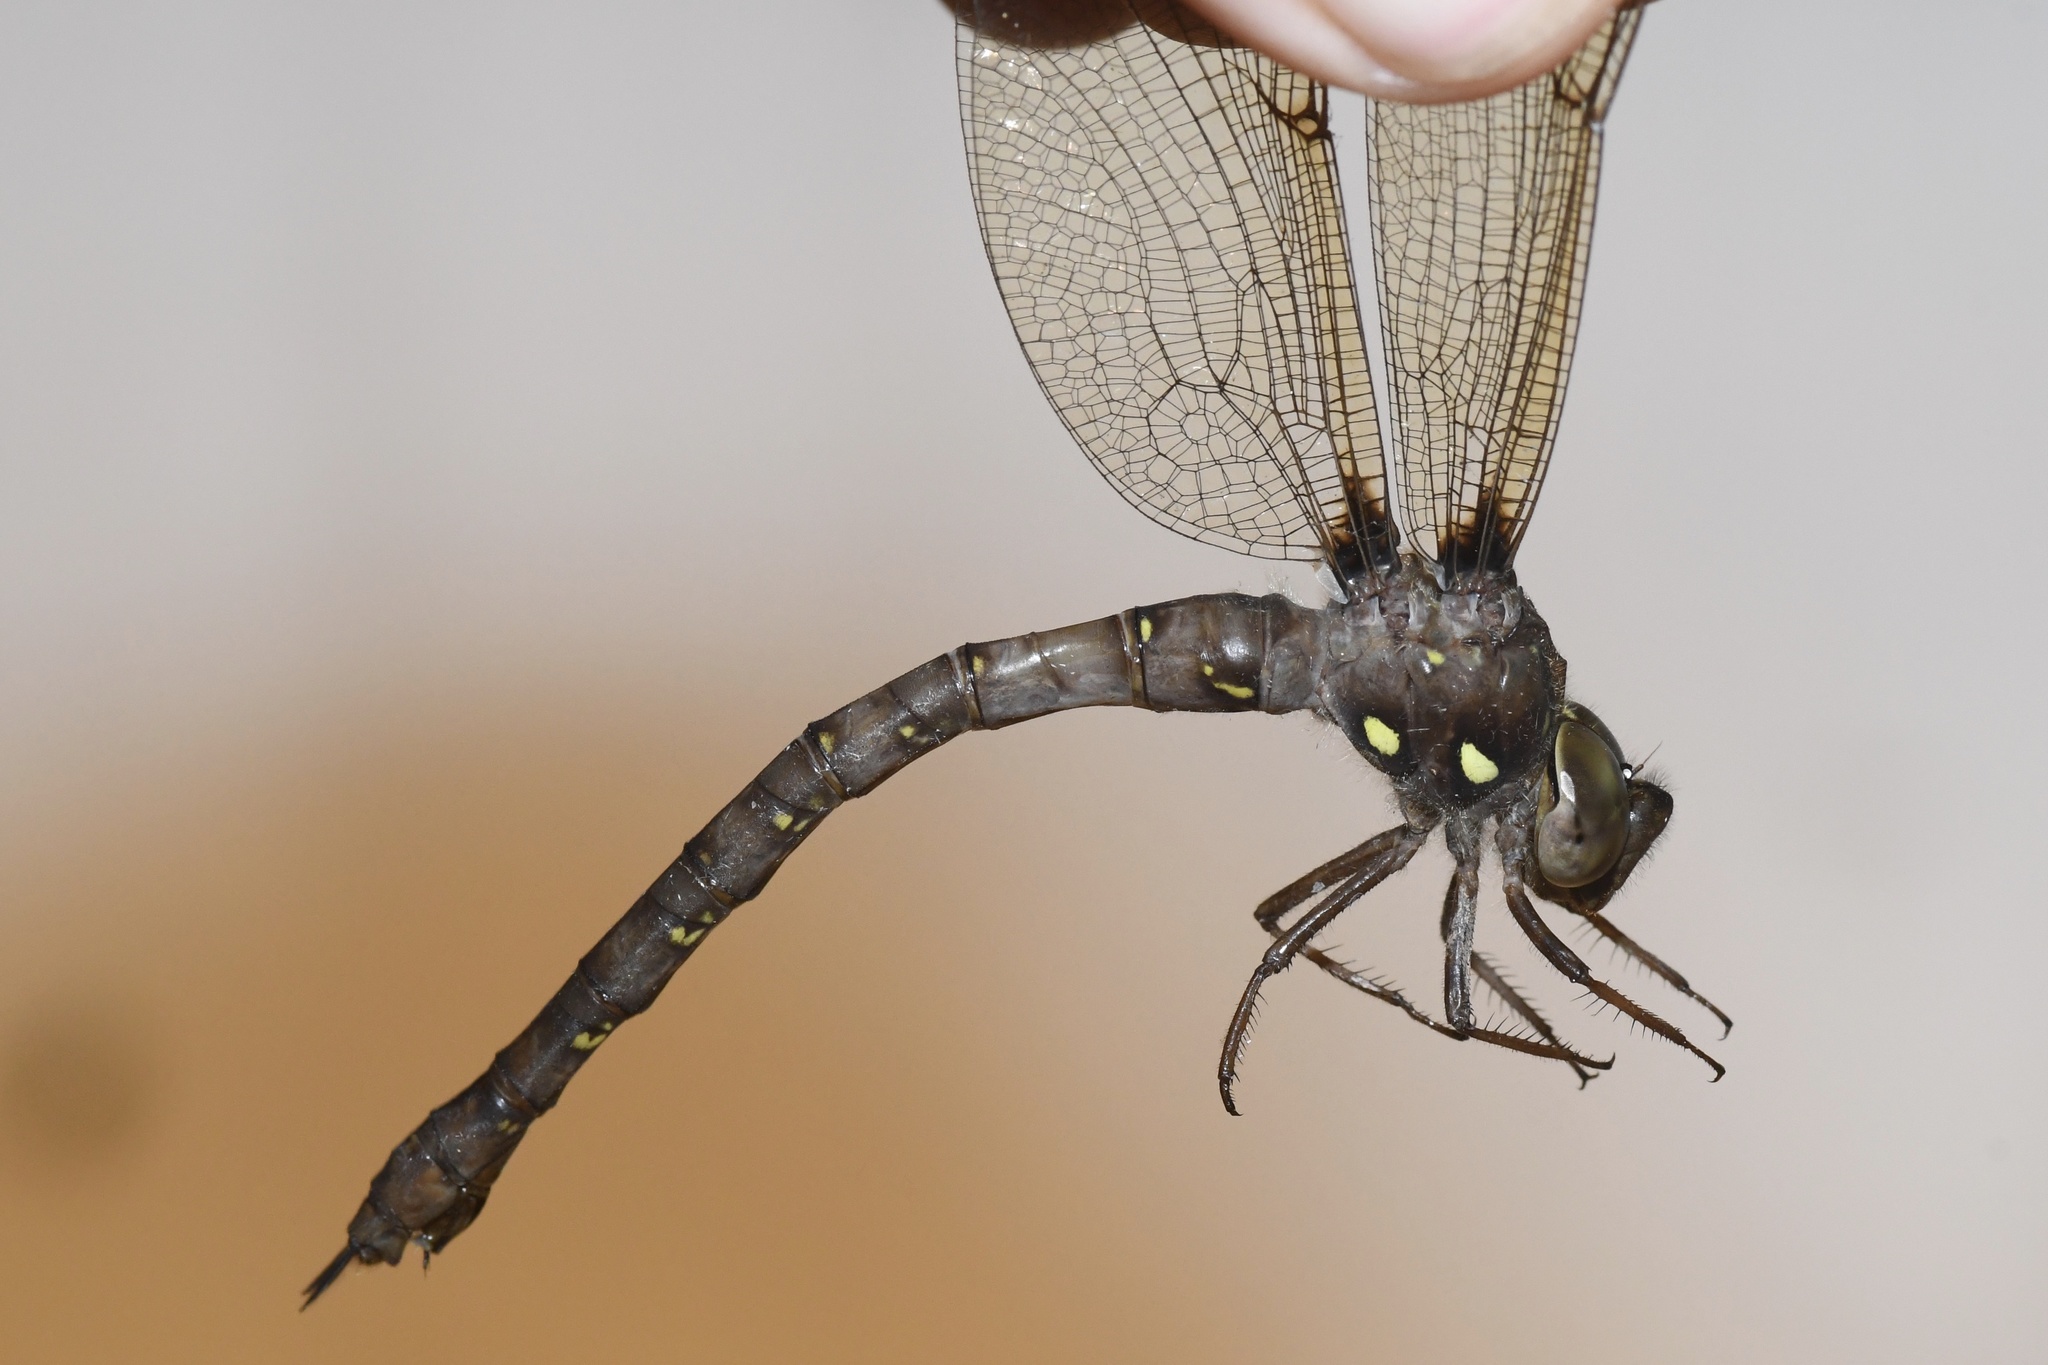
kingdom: Animalia
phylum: Arthropoda
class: Insecta
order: Odonata
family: Aeshnidae
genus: Boyeria
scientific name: Boyeria vinosa
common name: Fawn darner
